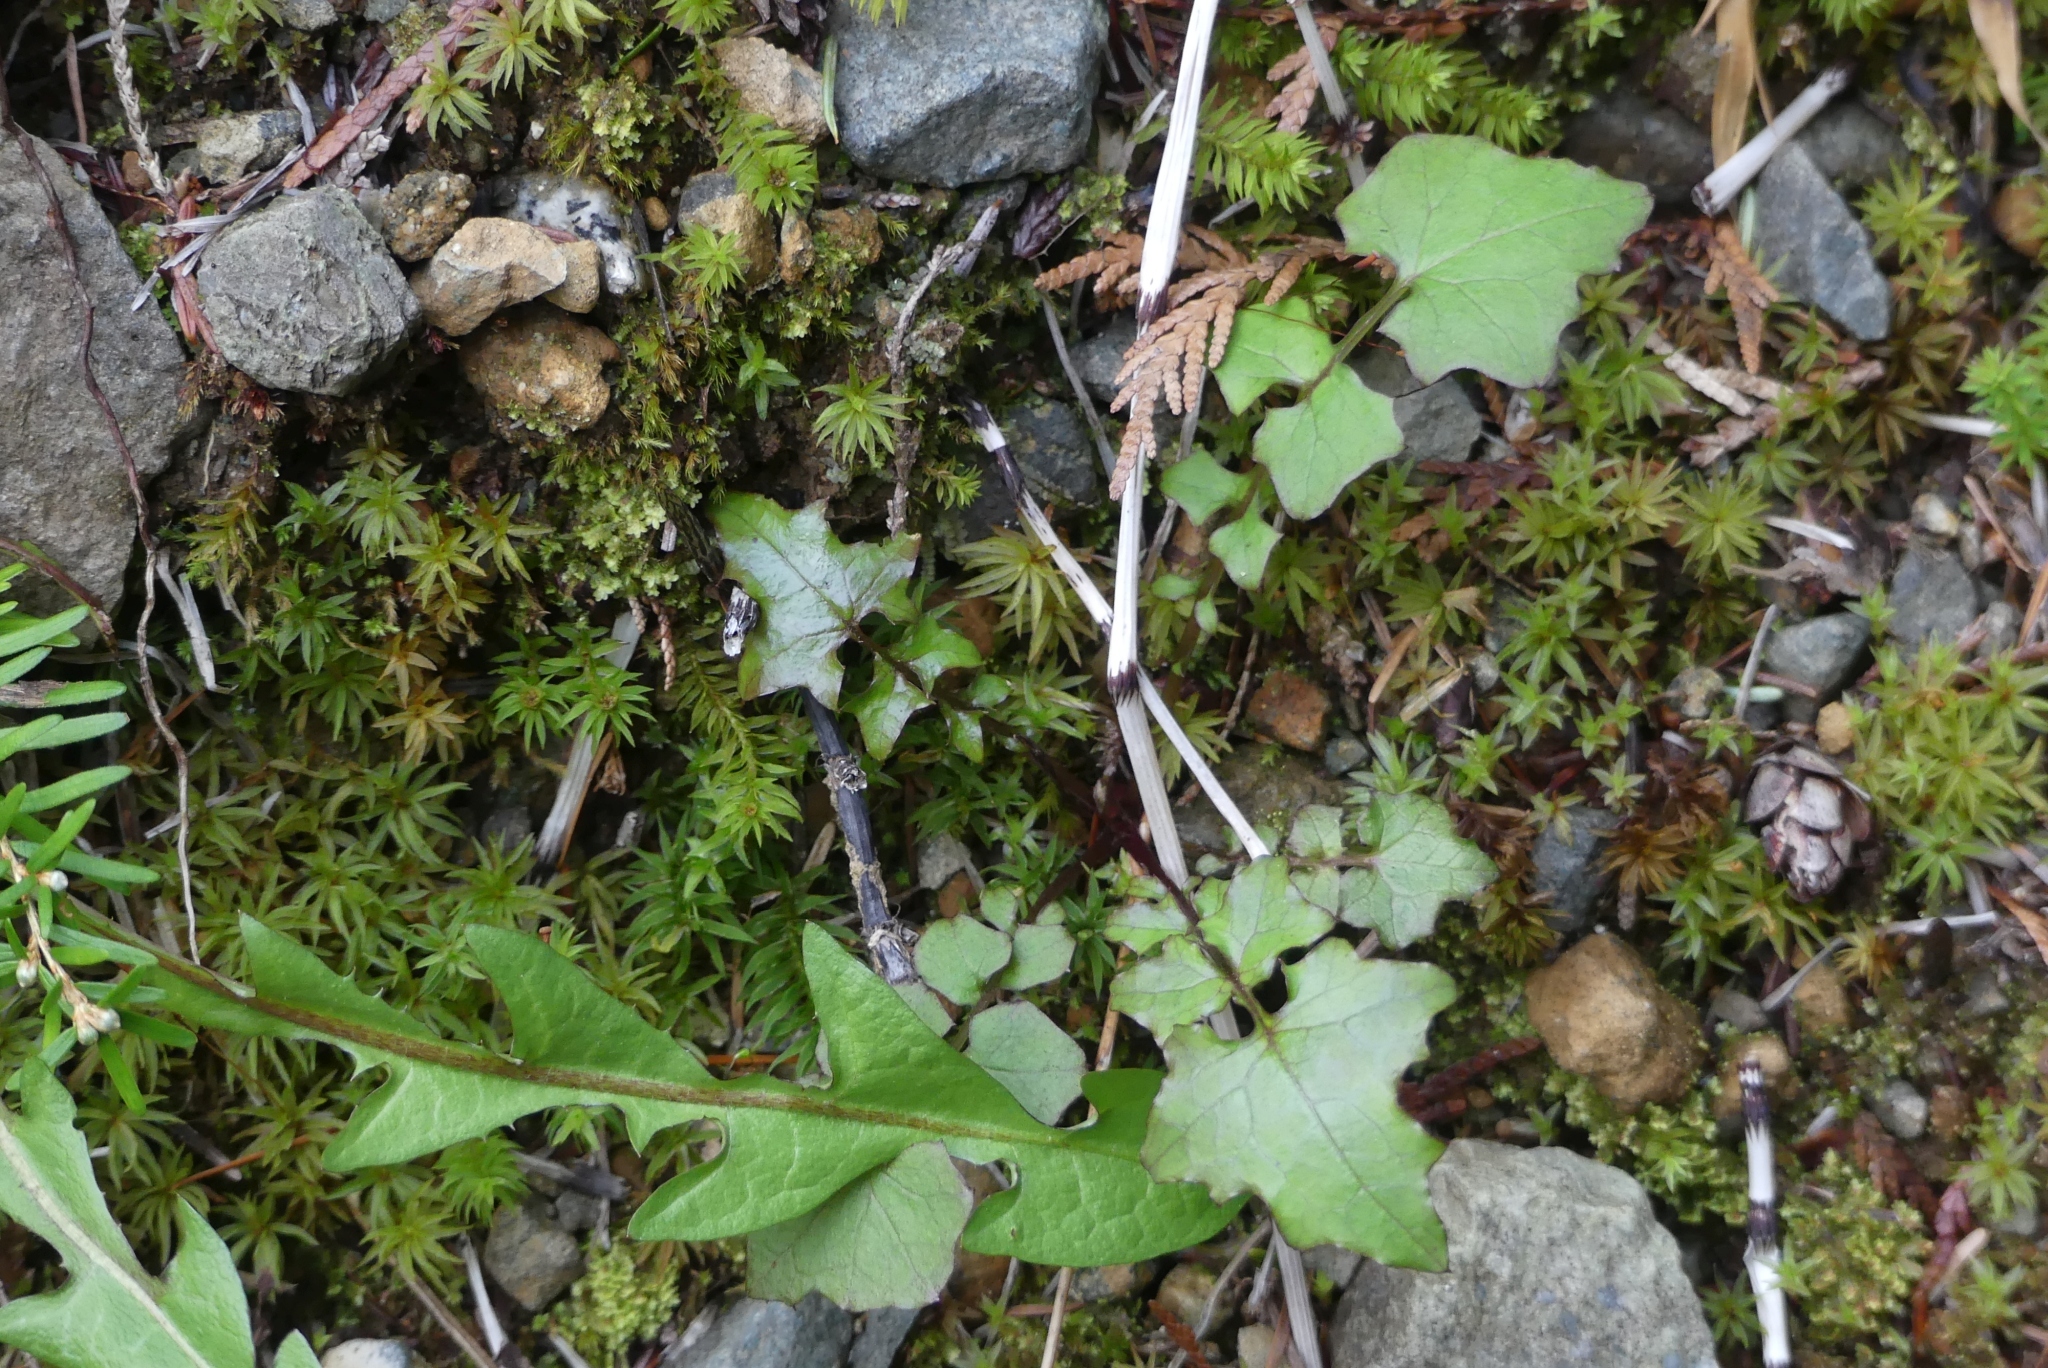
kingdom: Plantae
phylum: Tracheophyta
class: Magnoliopsida
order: Asterales
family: Asteraceae
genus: Mycelis
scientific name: Mycelis muralis
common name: Wall lettuce
